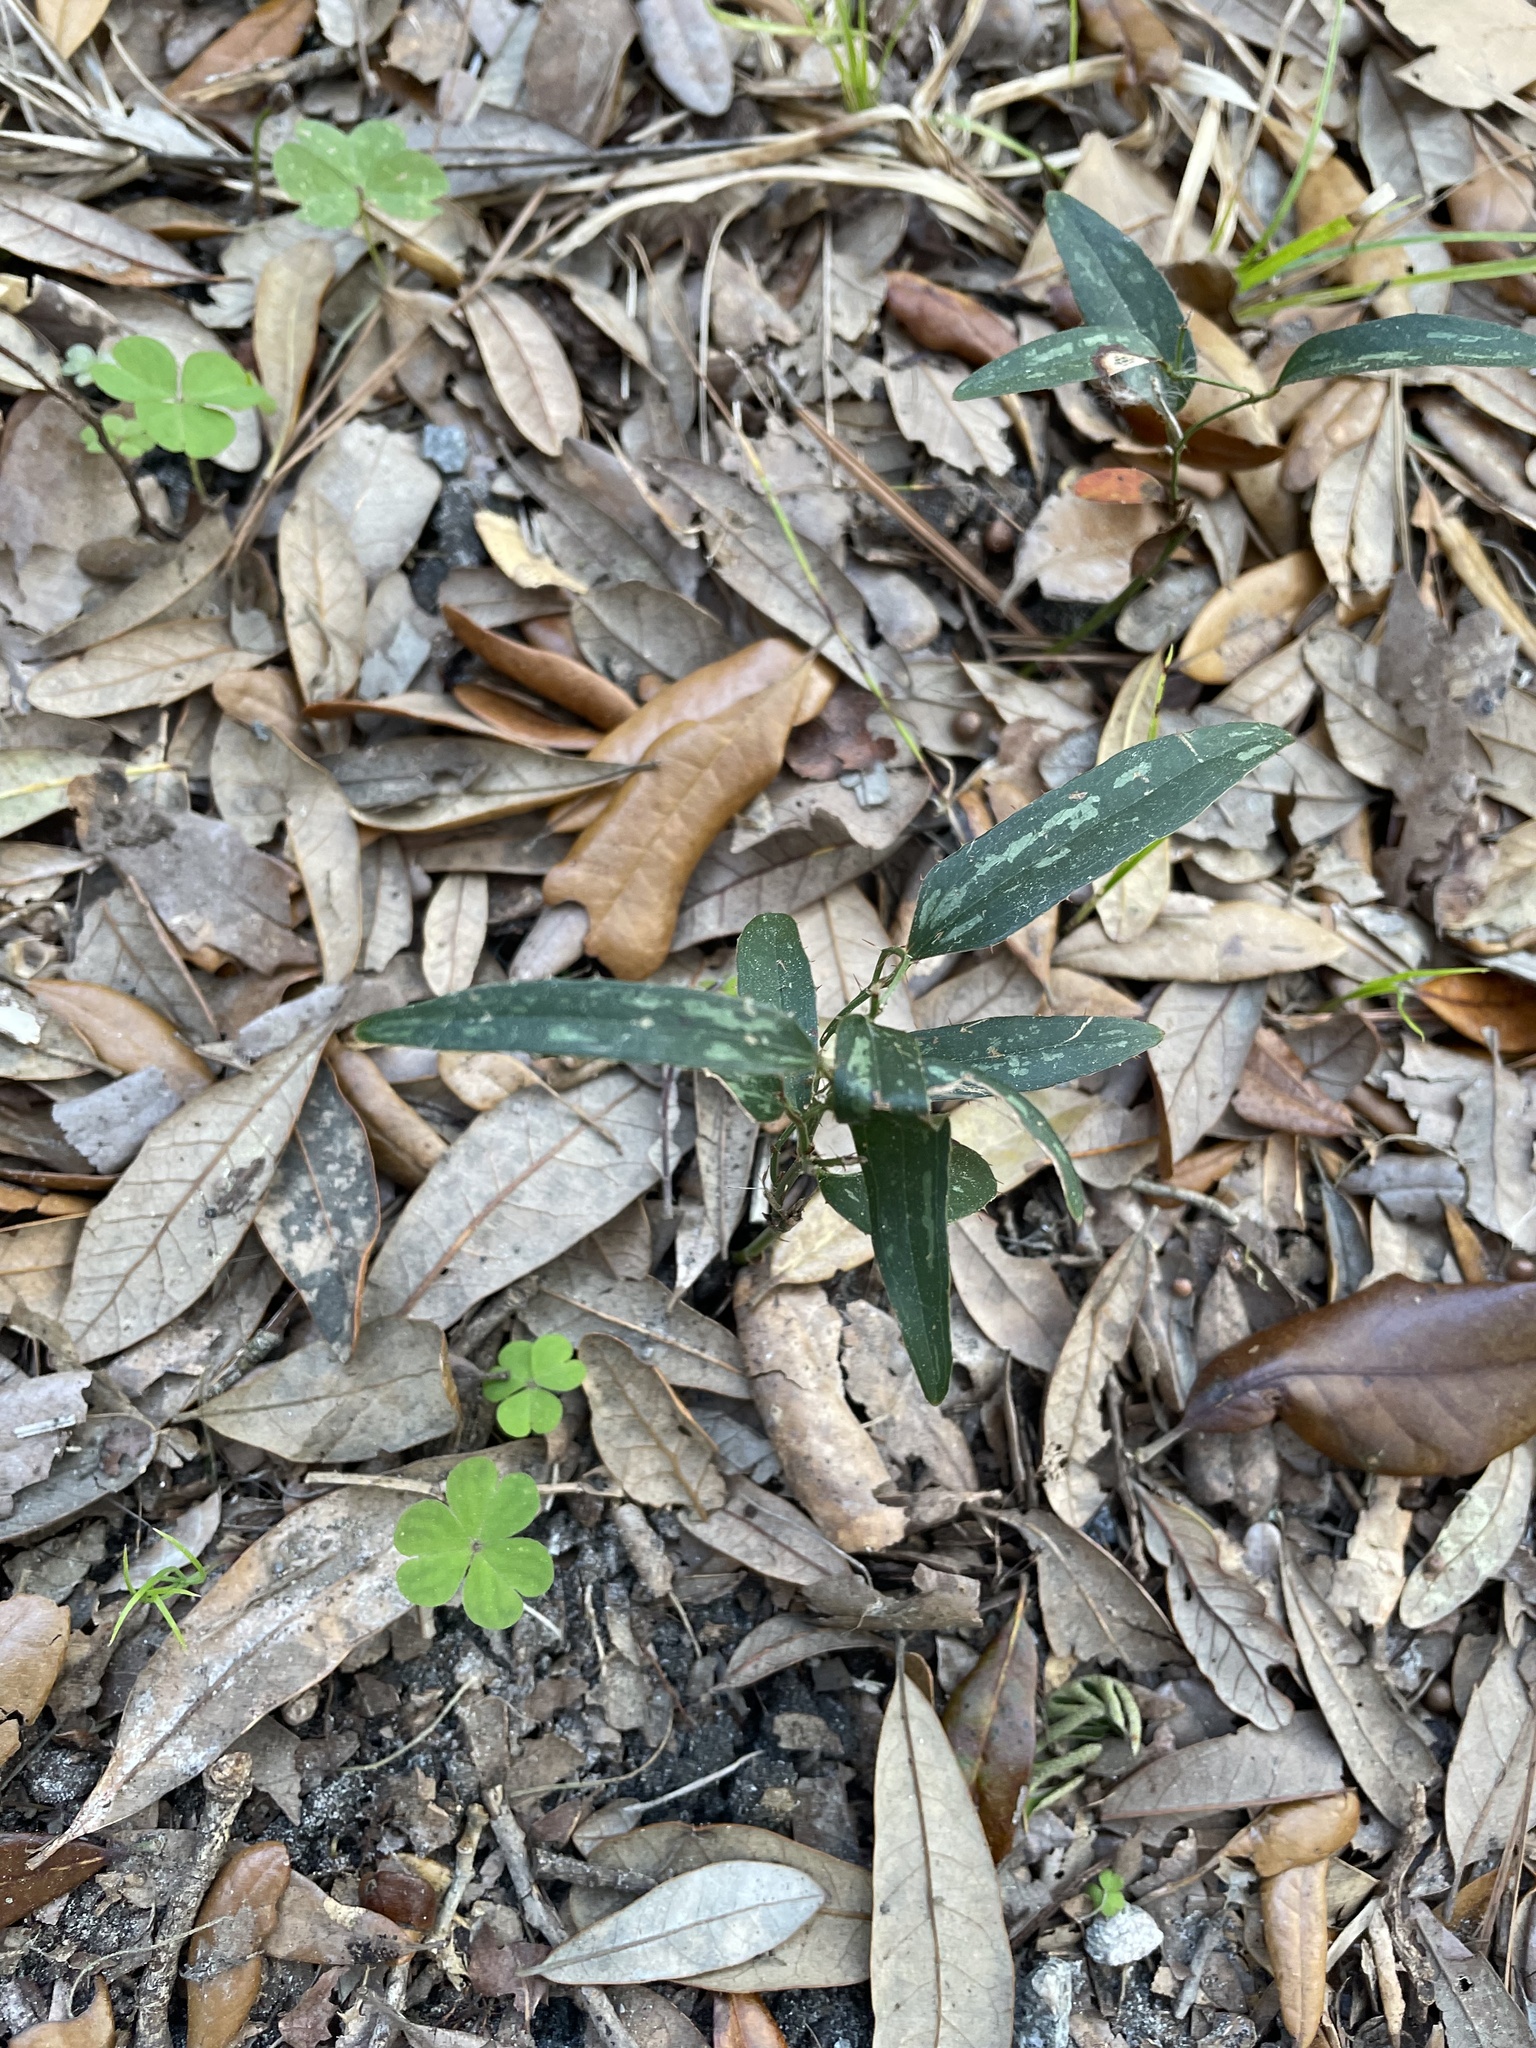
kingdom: Plantae
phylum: Tracheophyta
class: Liliopsida
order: Liliales
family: Smilacaceae
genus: Smilax
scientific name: Smilax bona-nox
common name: Catbrier
